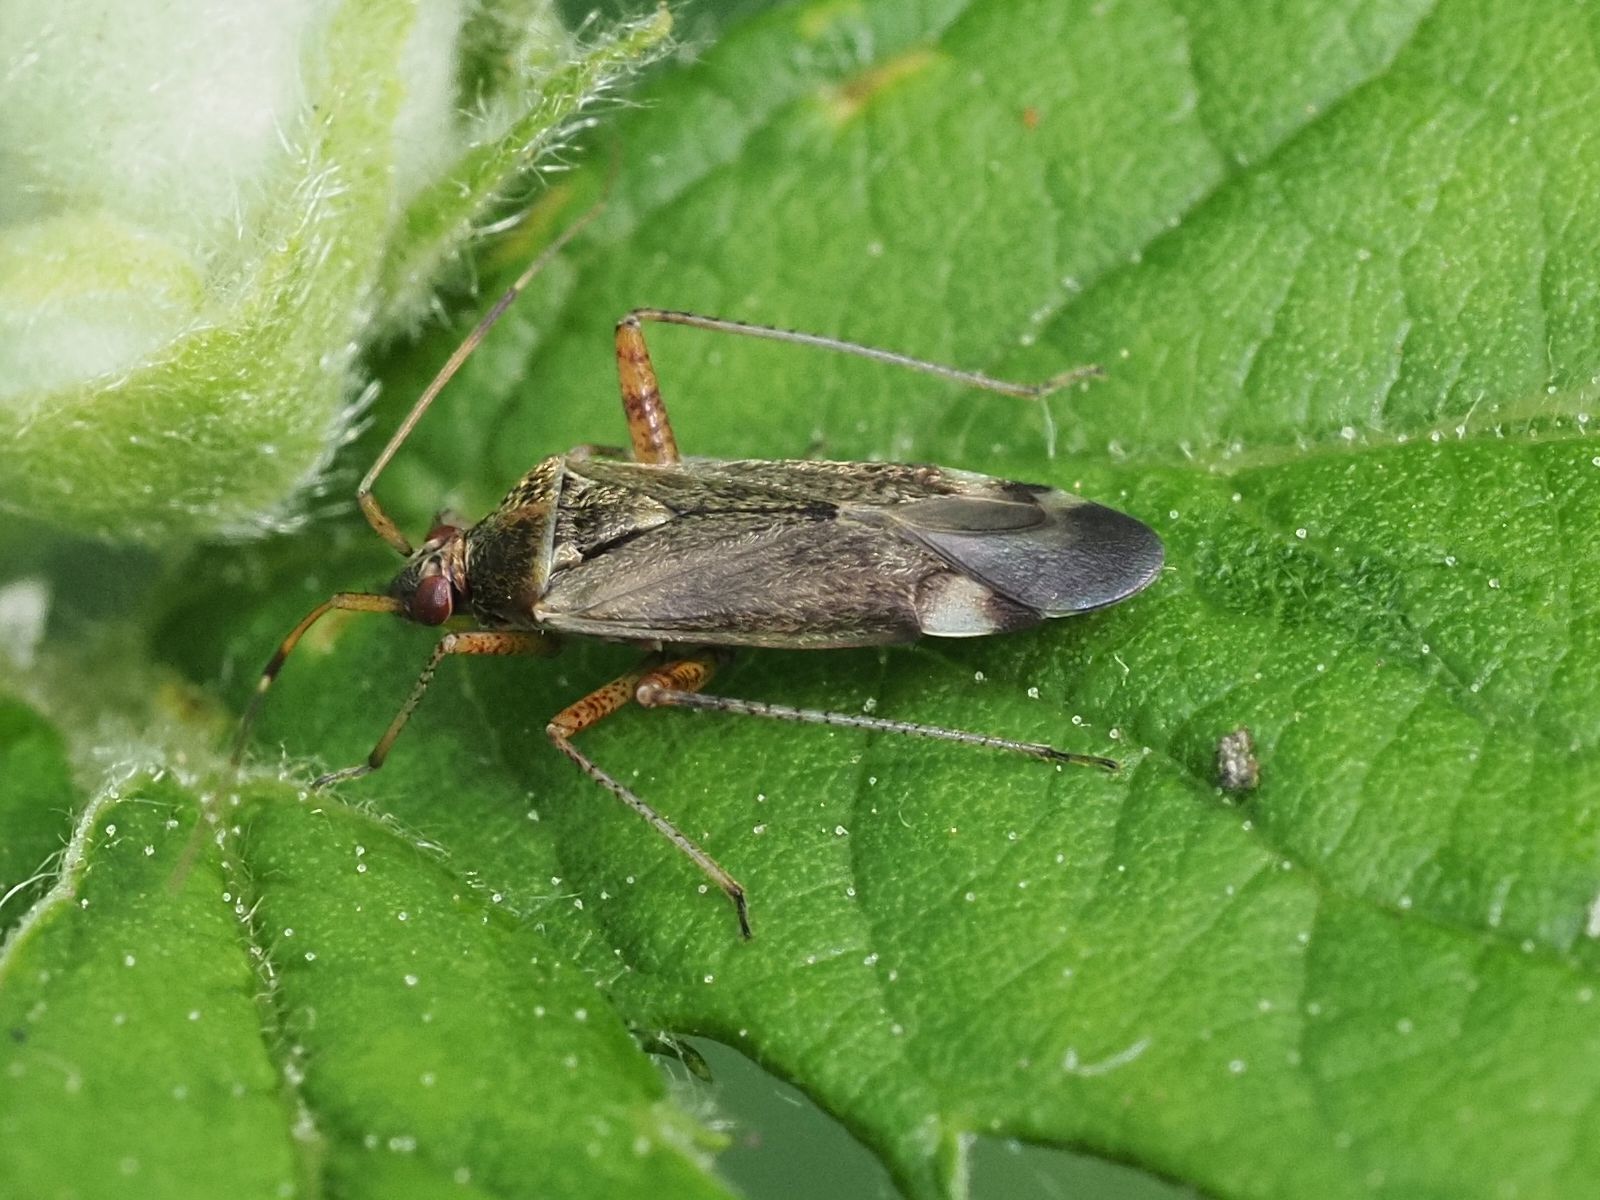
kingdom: Animalia
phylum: Arthropoda
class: Insecta
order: Hemiptera
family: Miridae
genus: Closterotomus
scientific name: Closterotomus fulvomaculatus
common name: Spotted plant bug
